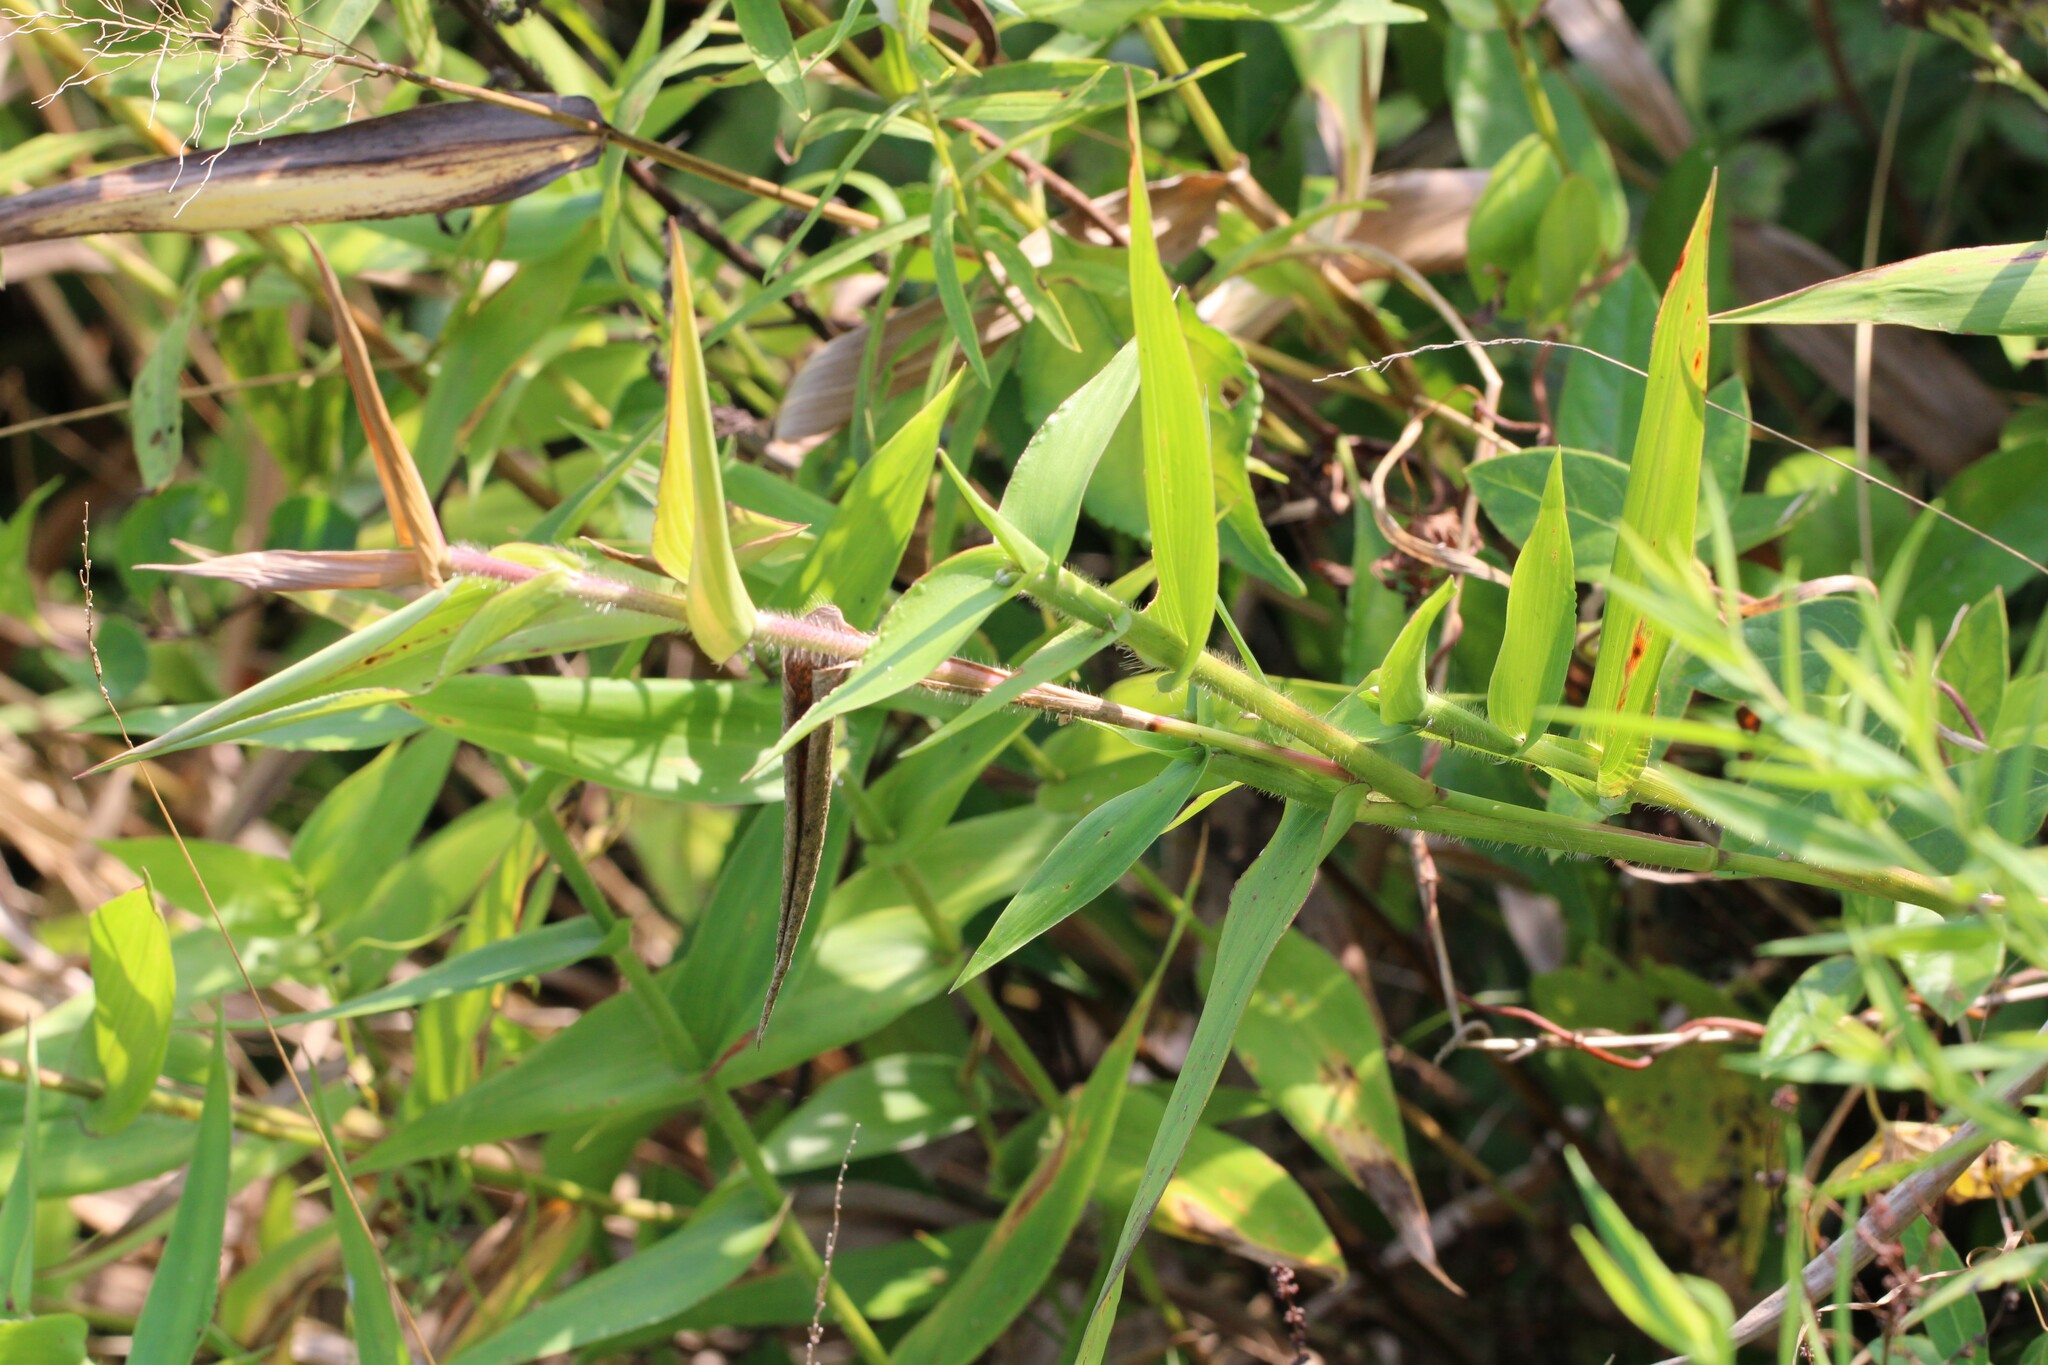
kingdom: Plantae
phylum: Tracheophyta
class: Liliopsida
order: Poales
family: Poaceae
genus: Dichanthelium
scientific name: Dichanthelium clandestinum
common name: Deer-tongue grass
